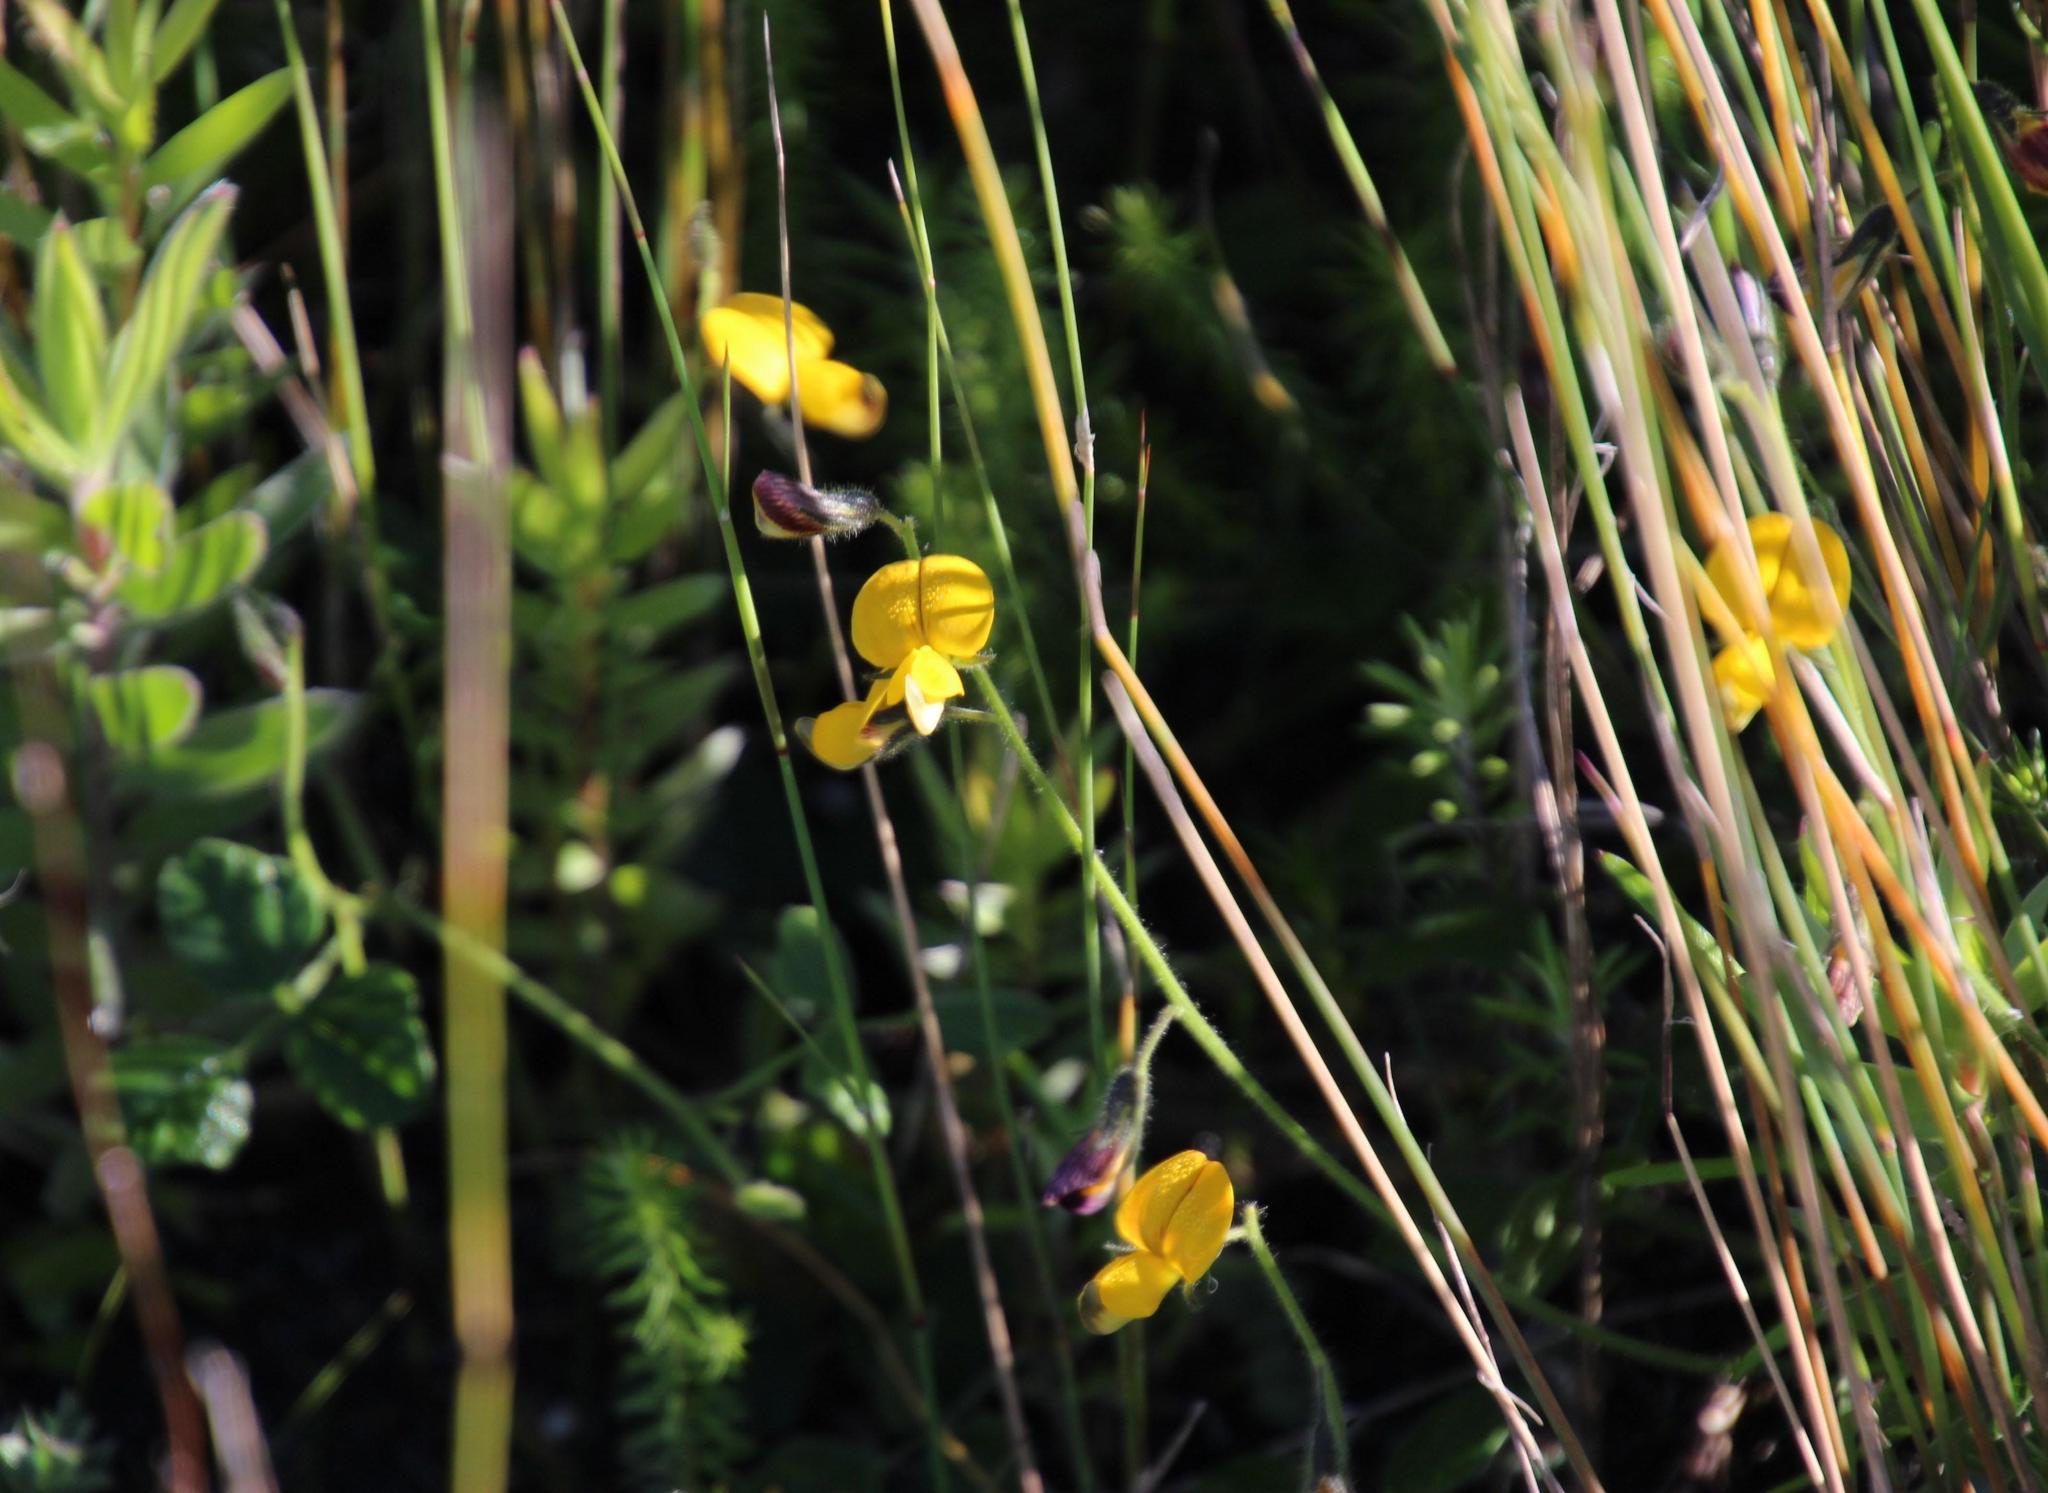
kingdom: Plantae
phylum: Tracheophyta
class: Magnoliopsida
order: Fabales
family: Fabaceae
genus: Bolusafra
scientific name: Bolusafra bituminosa
